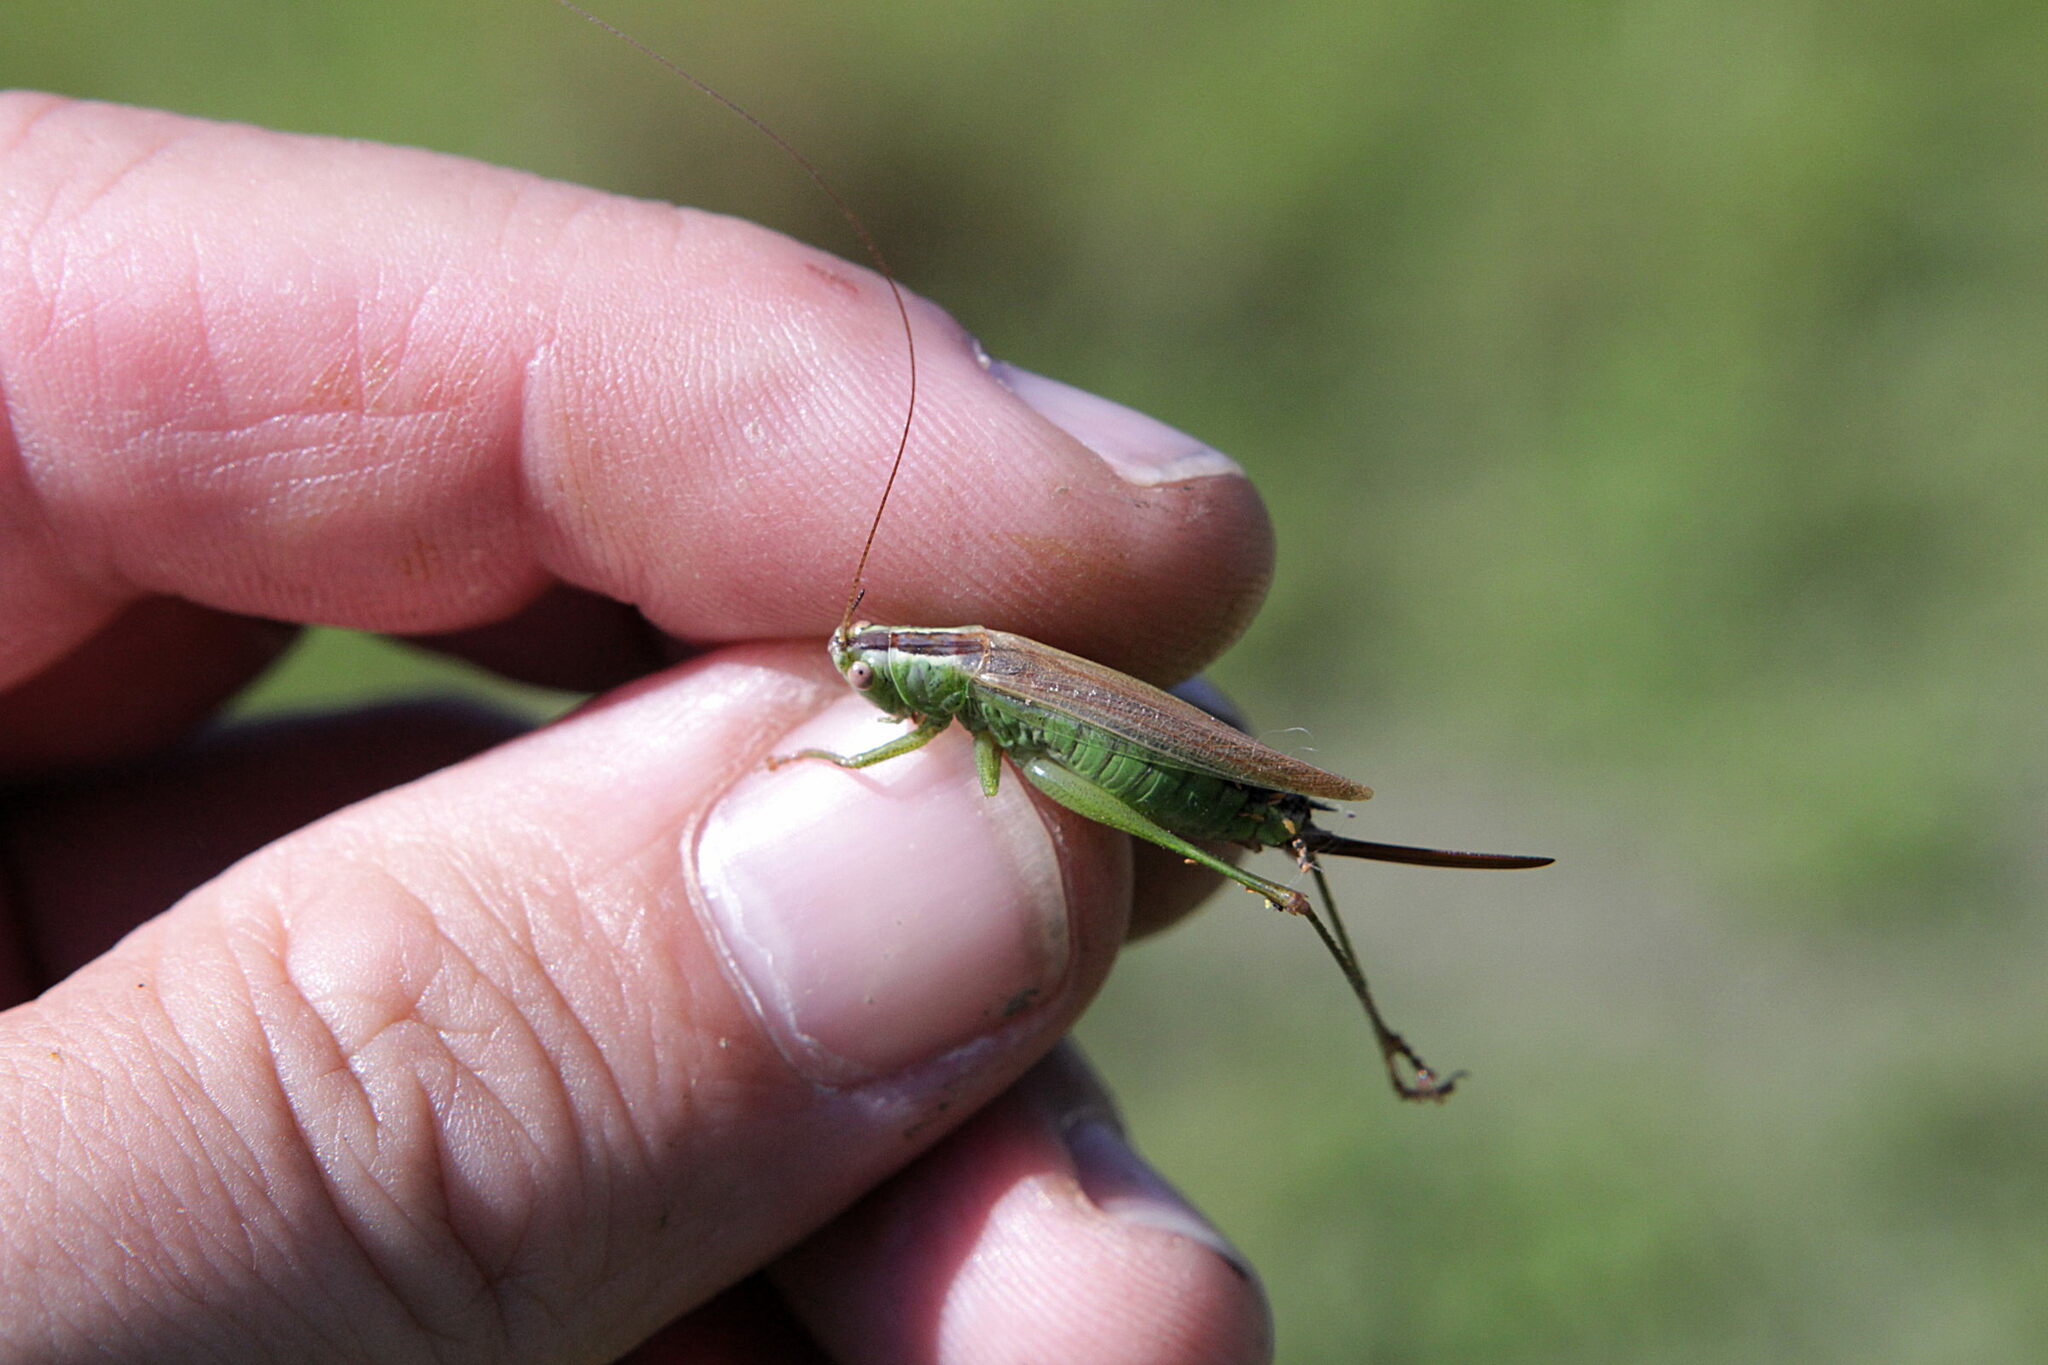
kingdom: Animalia
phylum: Arthropoda
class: Insecta
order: Orthoptera
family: Tettigoniidae
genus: Conocephalus
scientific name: Conocephalus fuscus
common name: Long-winged conehead
